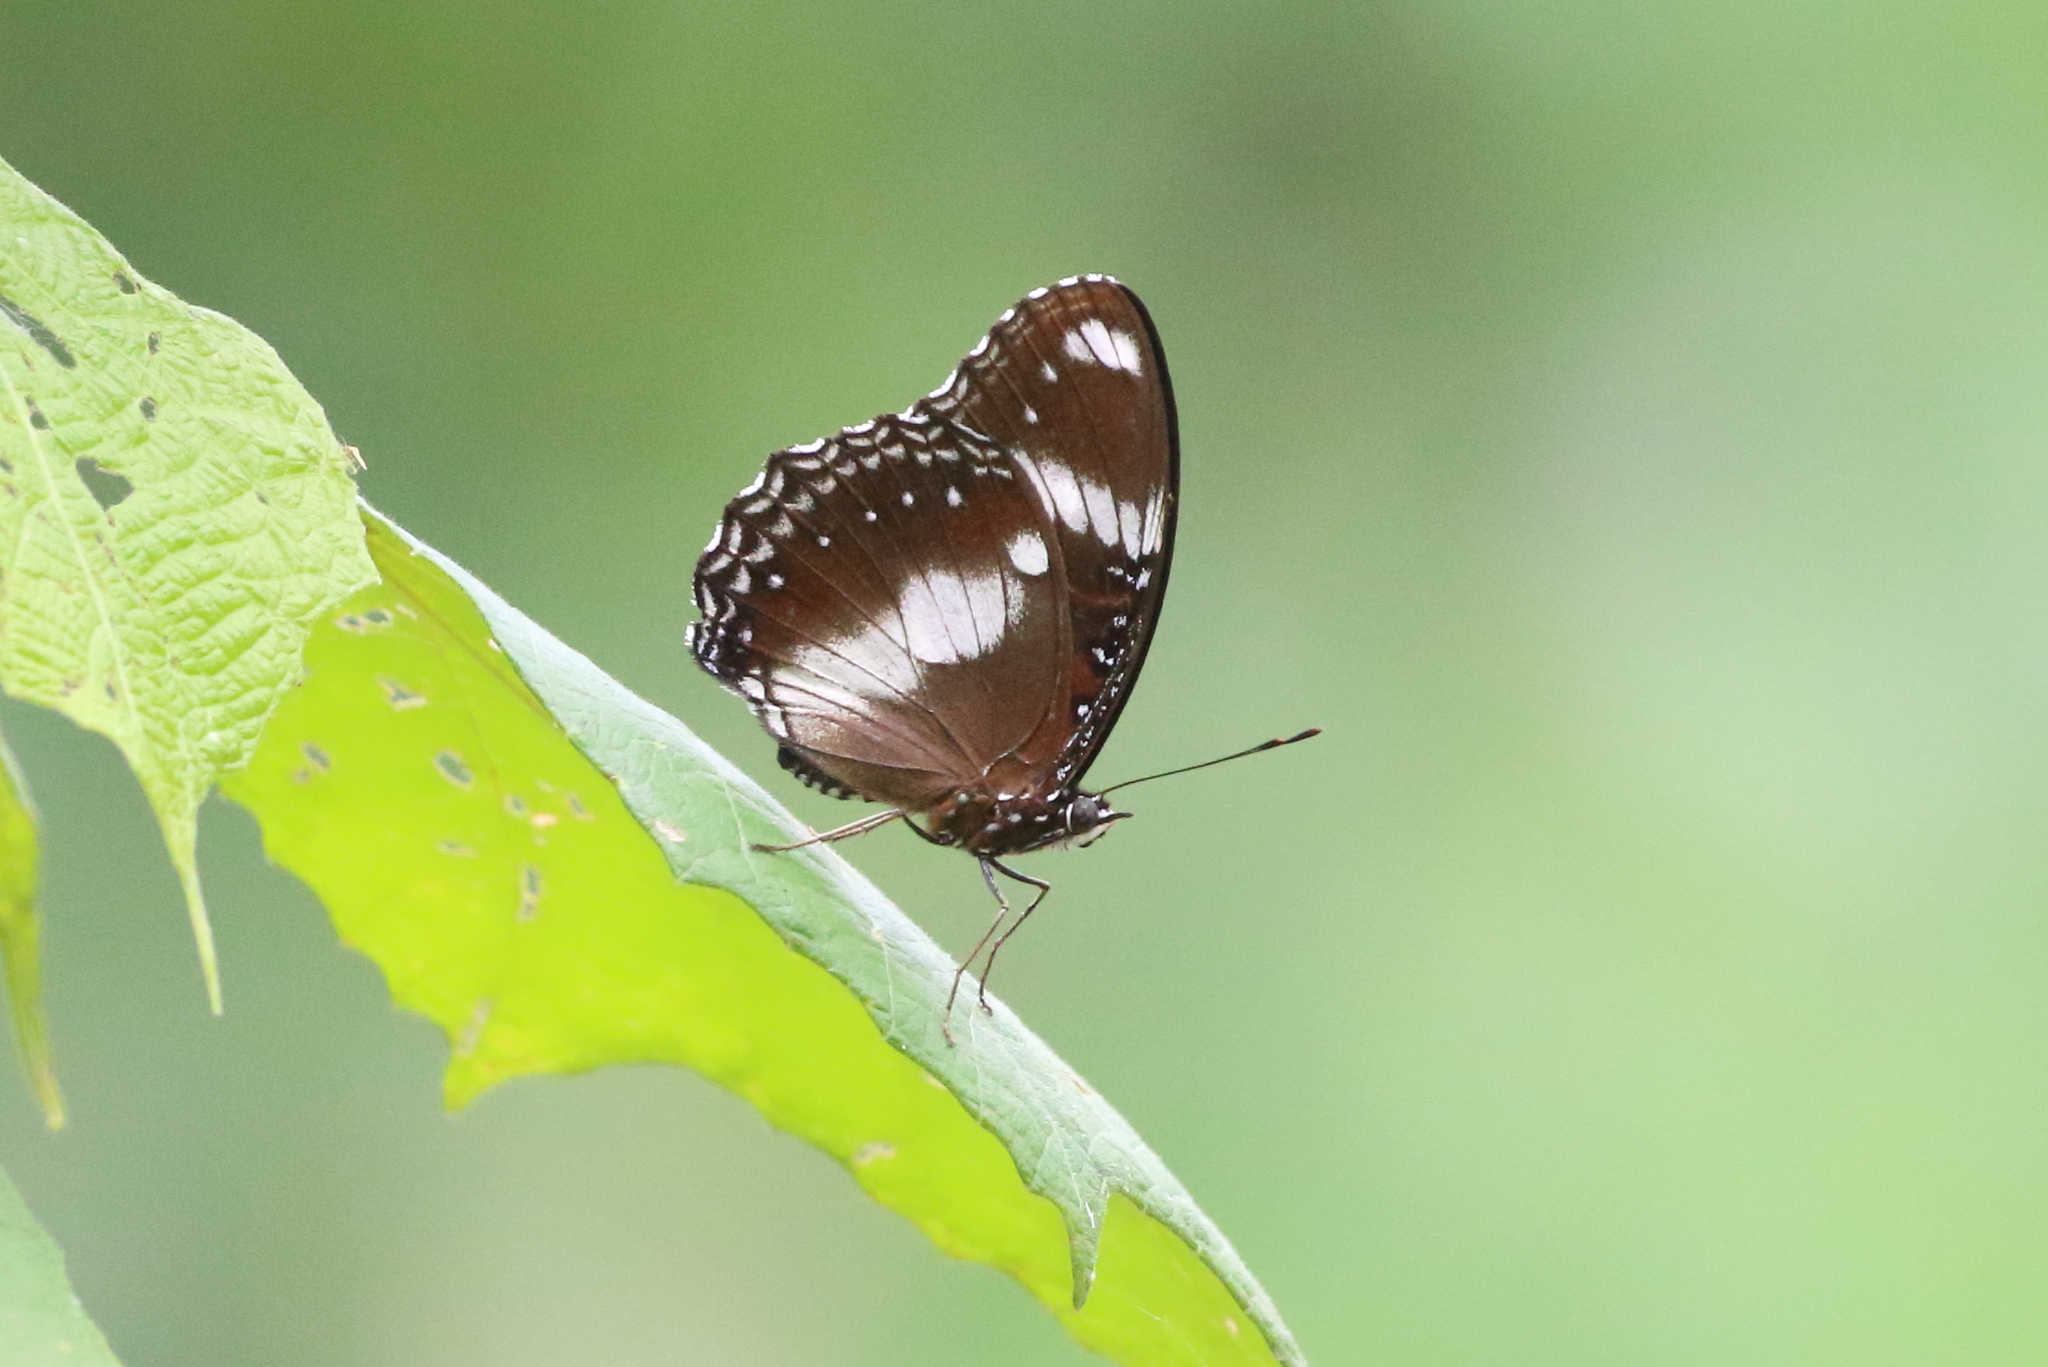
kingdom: Animalia
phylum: Arthropoda
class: Insecta
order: Lepidoptera
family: Nymphalidae
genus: Hypolimnas
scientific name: Hypolimnas bolina
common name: Great eggfly
